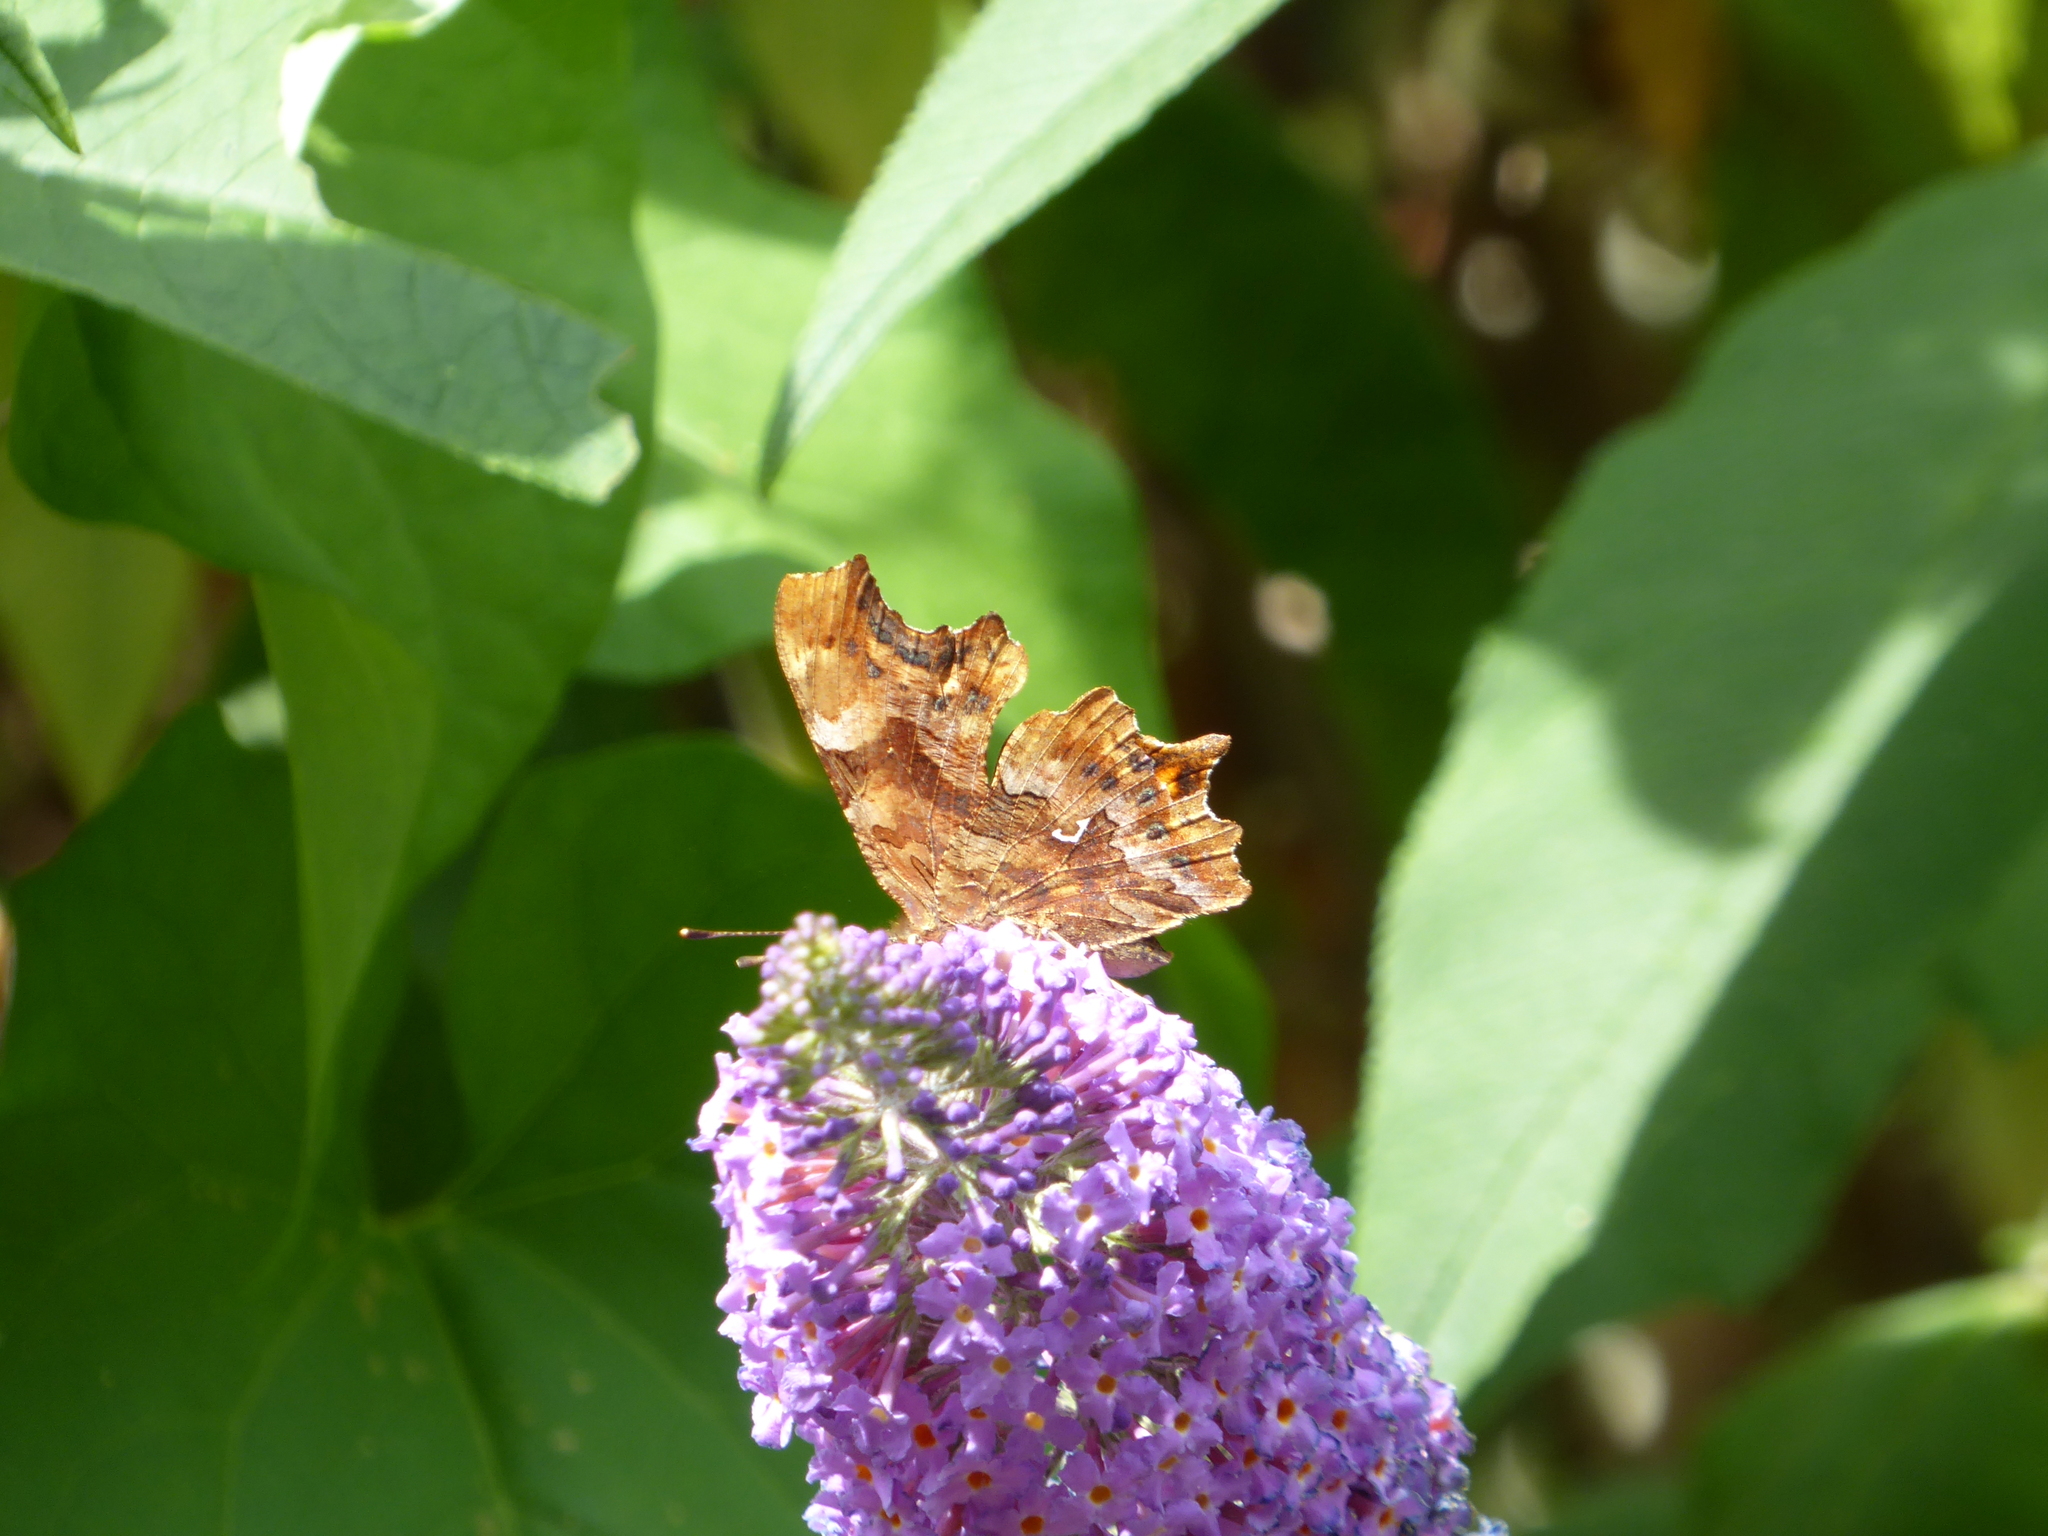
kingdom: Animalia
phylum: Arthropoda
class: Insecta
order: Lepidoptera
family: Nymphalidae
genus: Polygonia
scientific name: Polygonia c-album
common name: Comma
